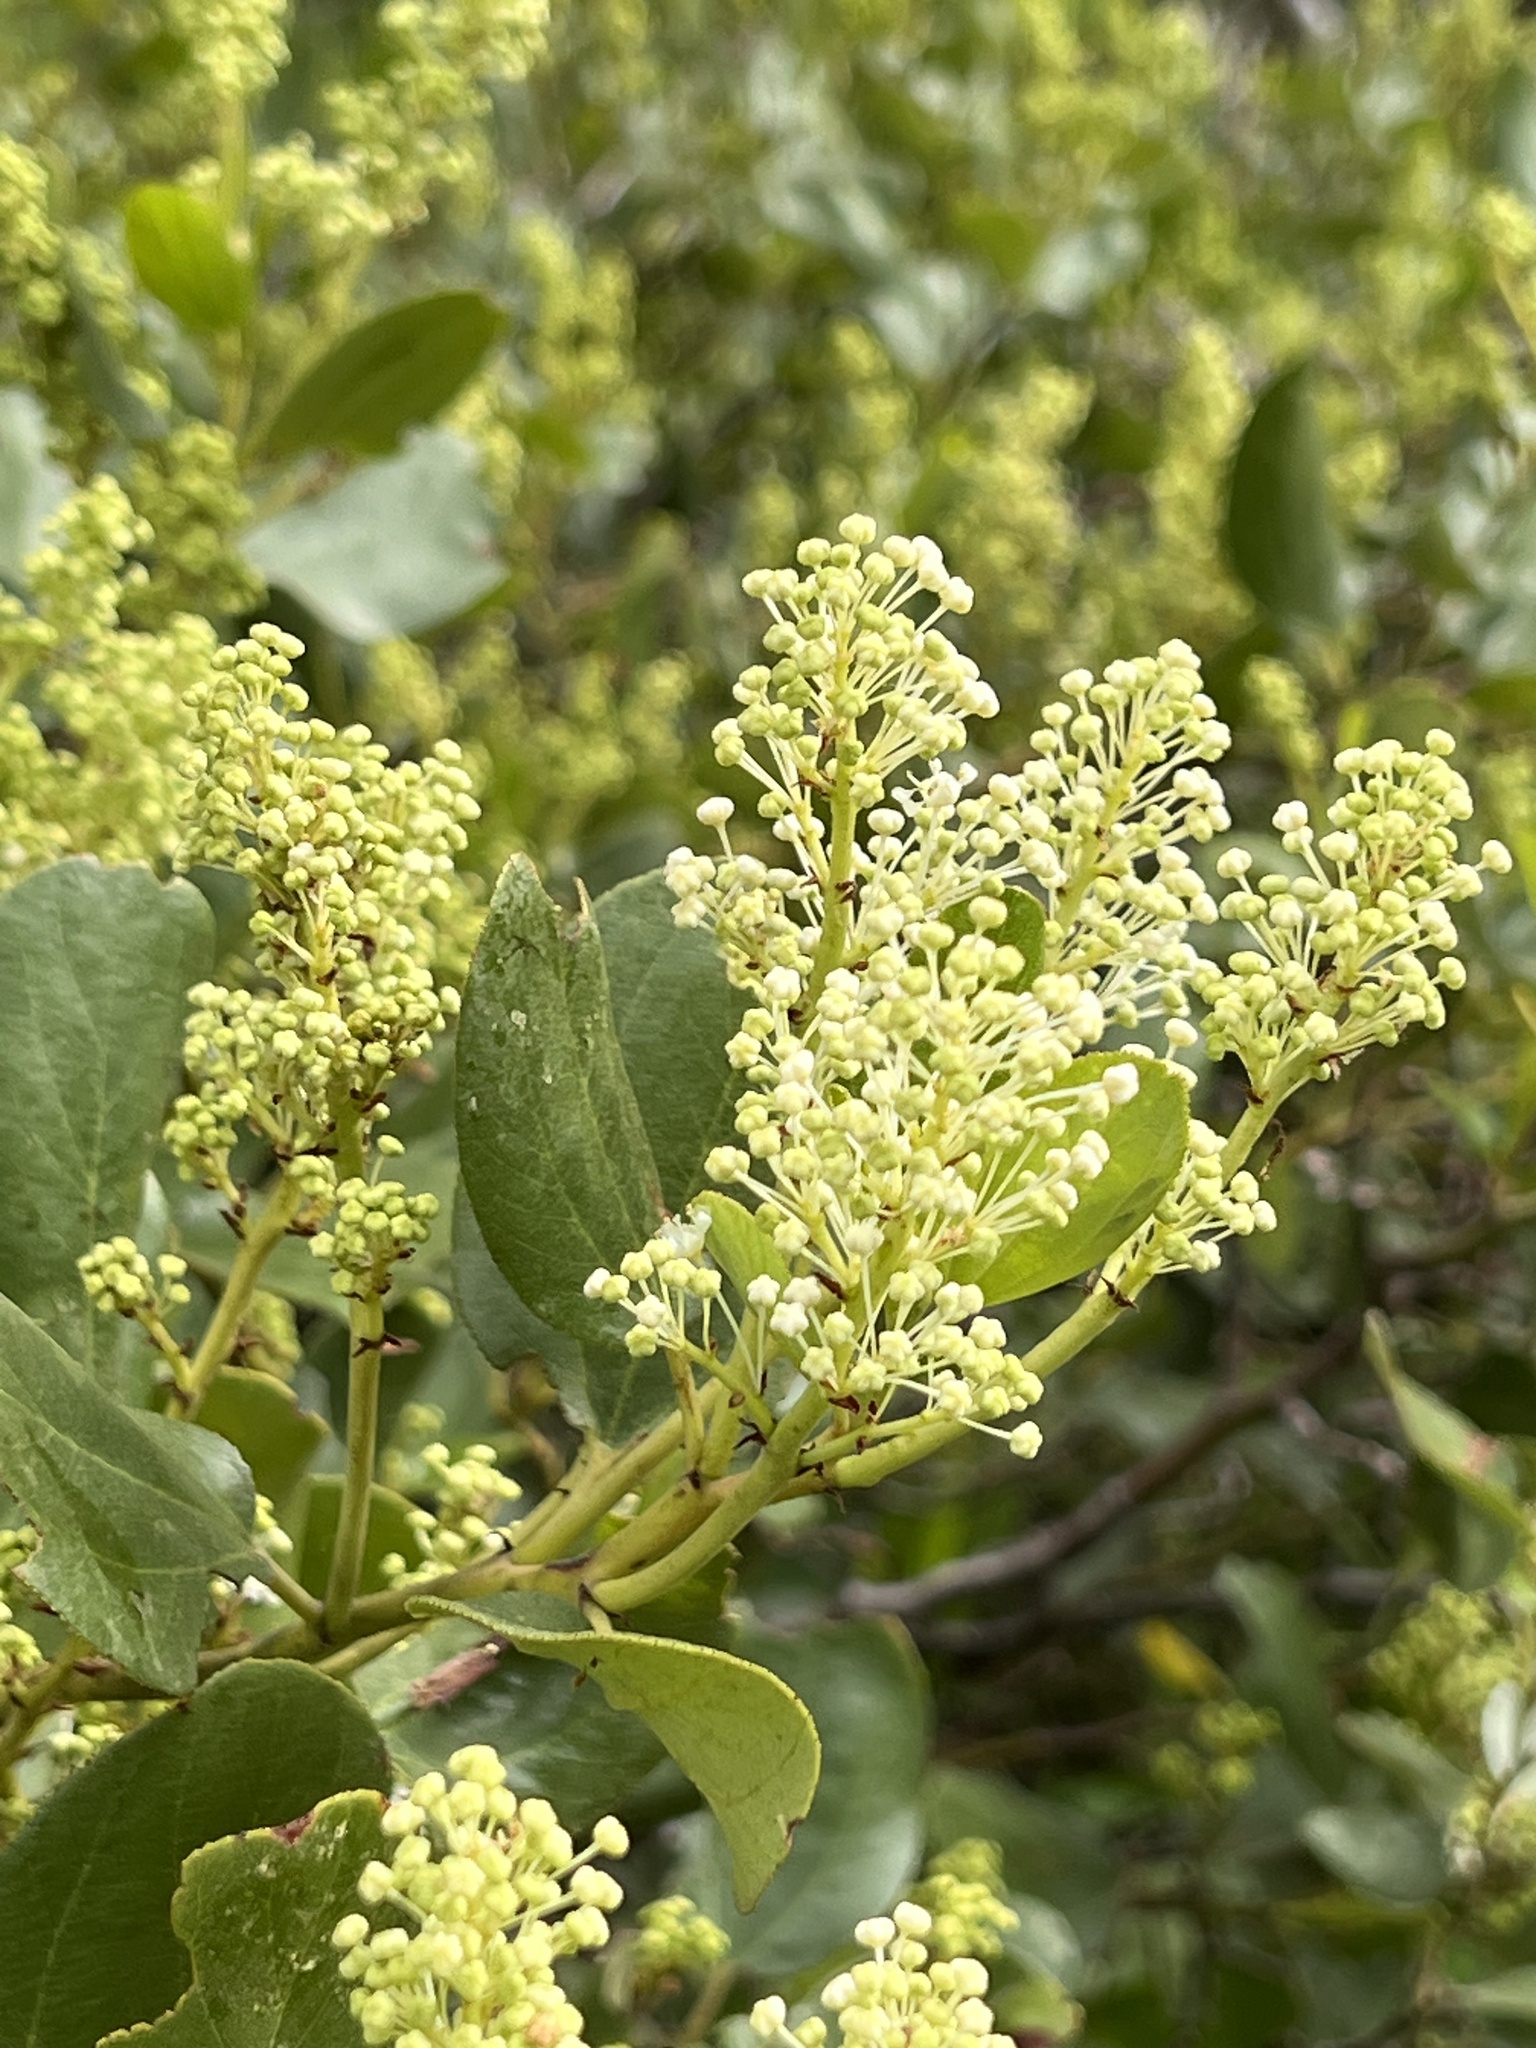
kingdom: Plantae
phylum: Tracheophyta
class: Magnoliopsida
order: Rosales
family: Rhamnaceae
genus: Ceanothus
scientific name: Ceanothus velutinus
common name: Snowbrush
